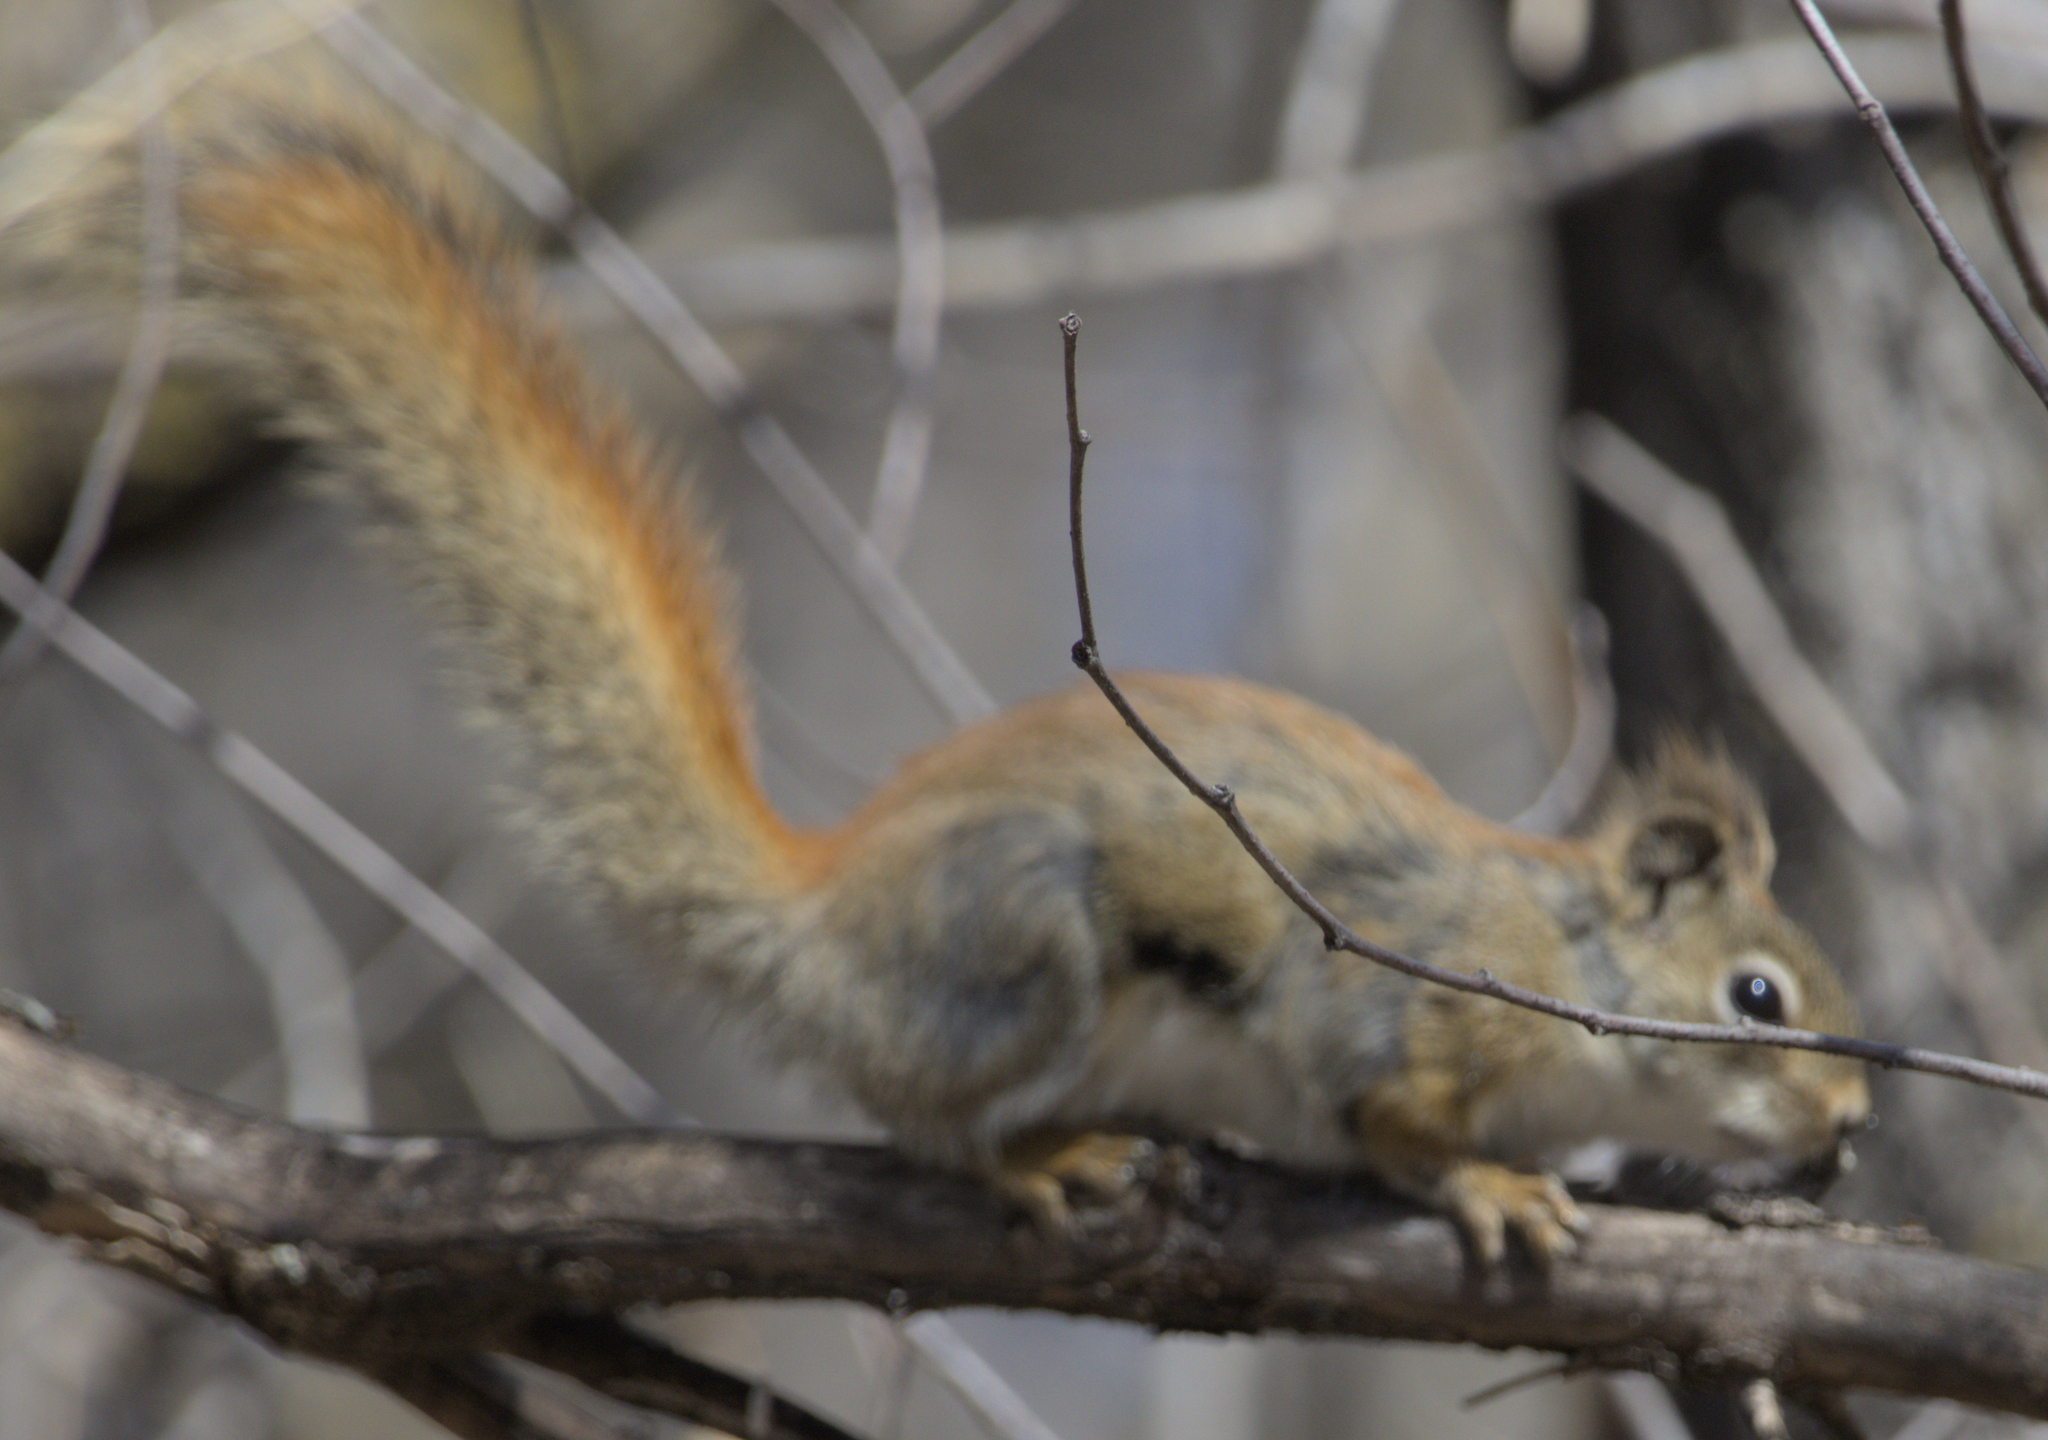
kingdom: Animalia
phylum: Chordata
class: Mammalia
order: Rodentia
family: Sciuridae
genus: Tamiasciurus
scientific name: Tamiasciurus hudsonicus
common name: Red squirrel
